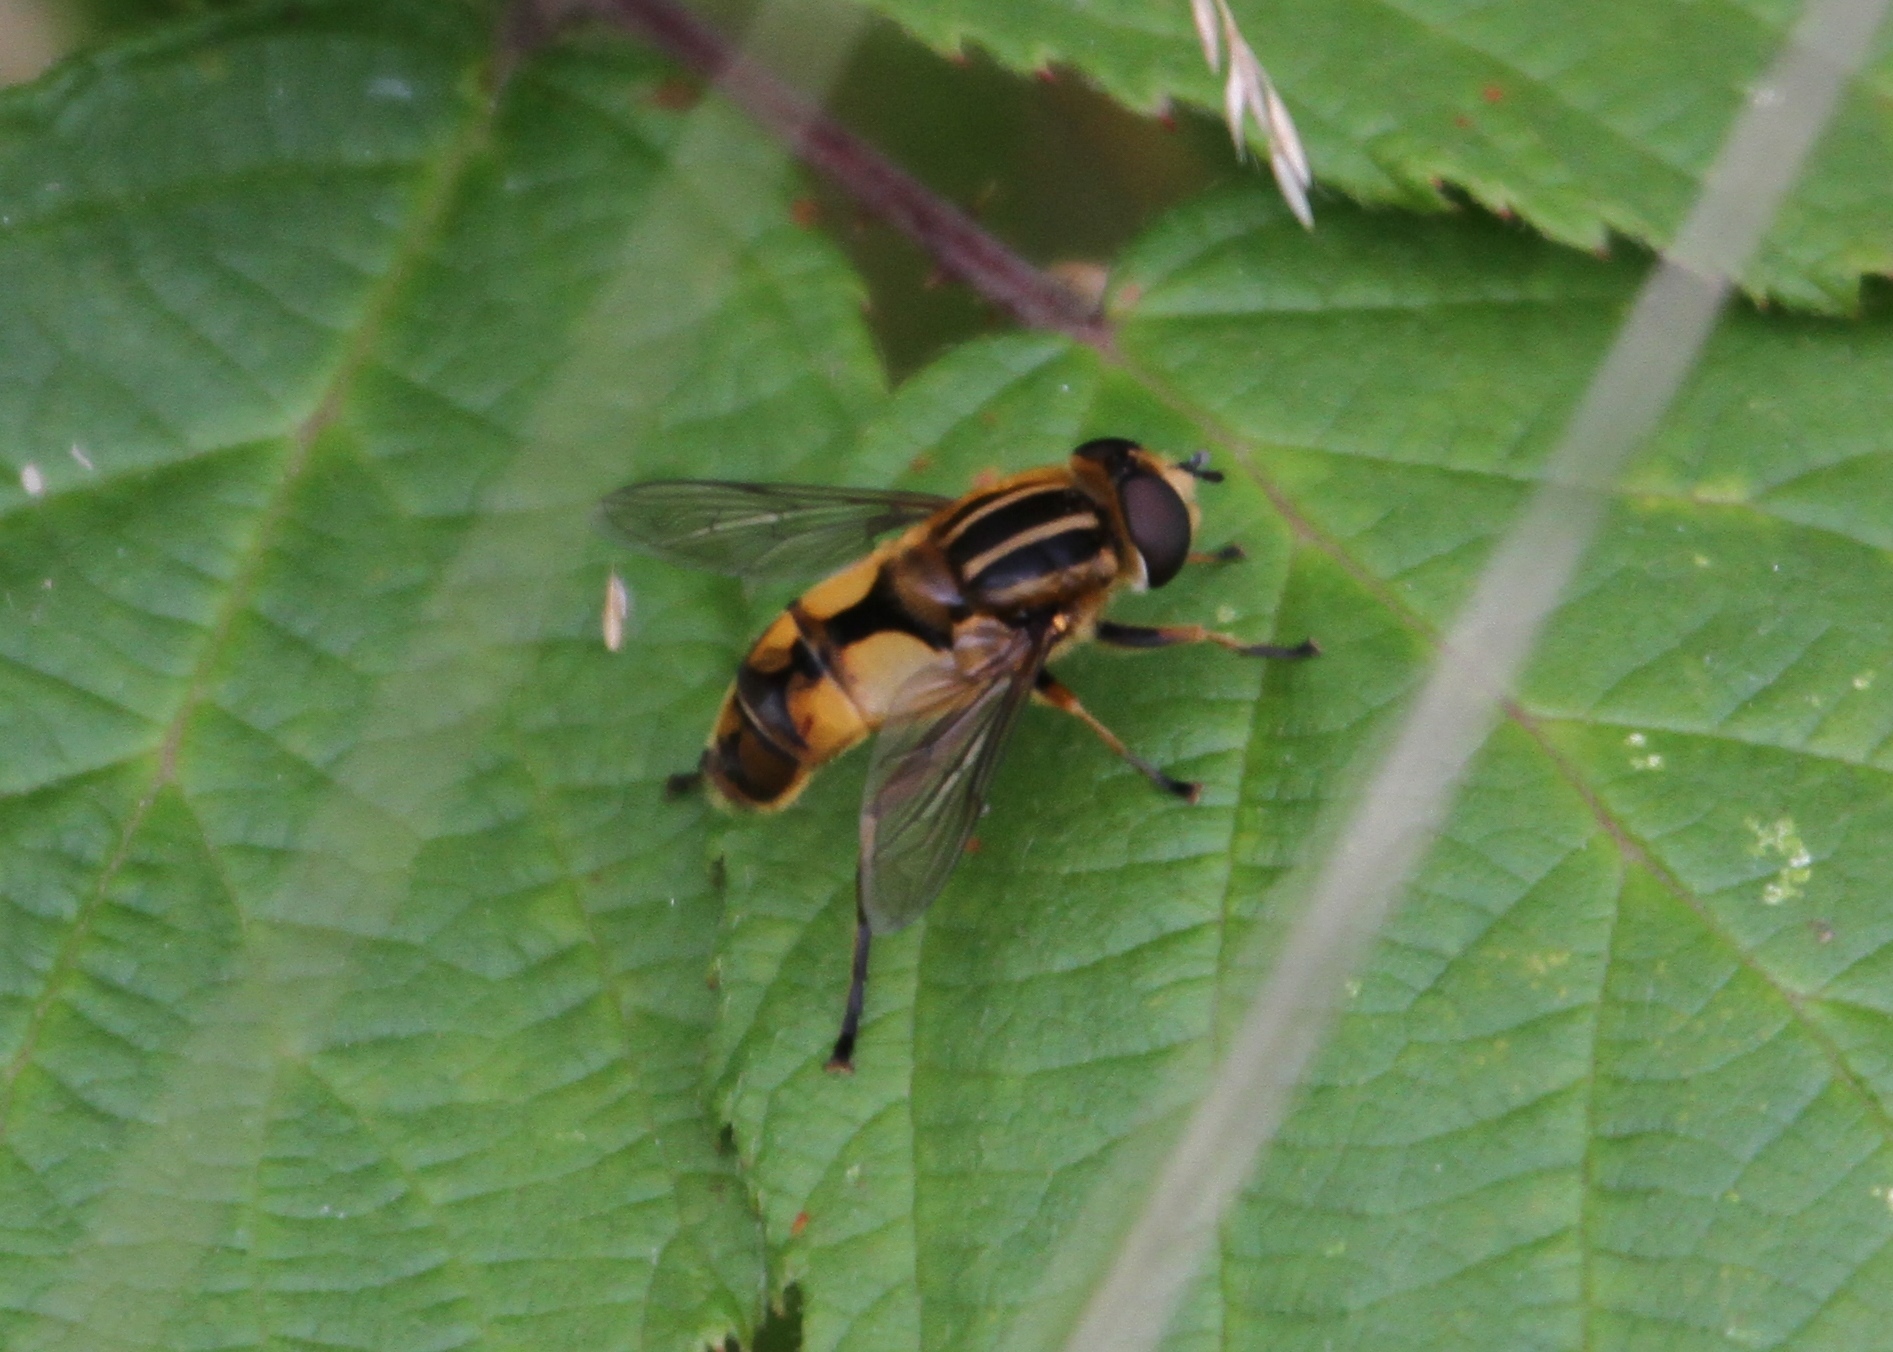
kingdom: Animalia
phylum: Arthropoda
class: Insecta
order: Diptera
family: Syrphidae
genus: Helophilus
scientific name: Helophilus hybridus
